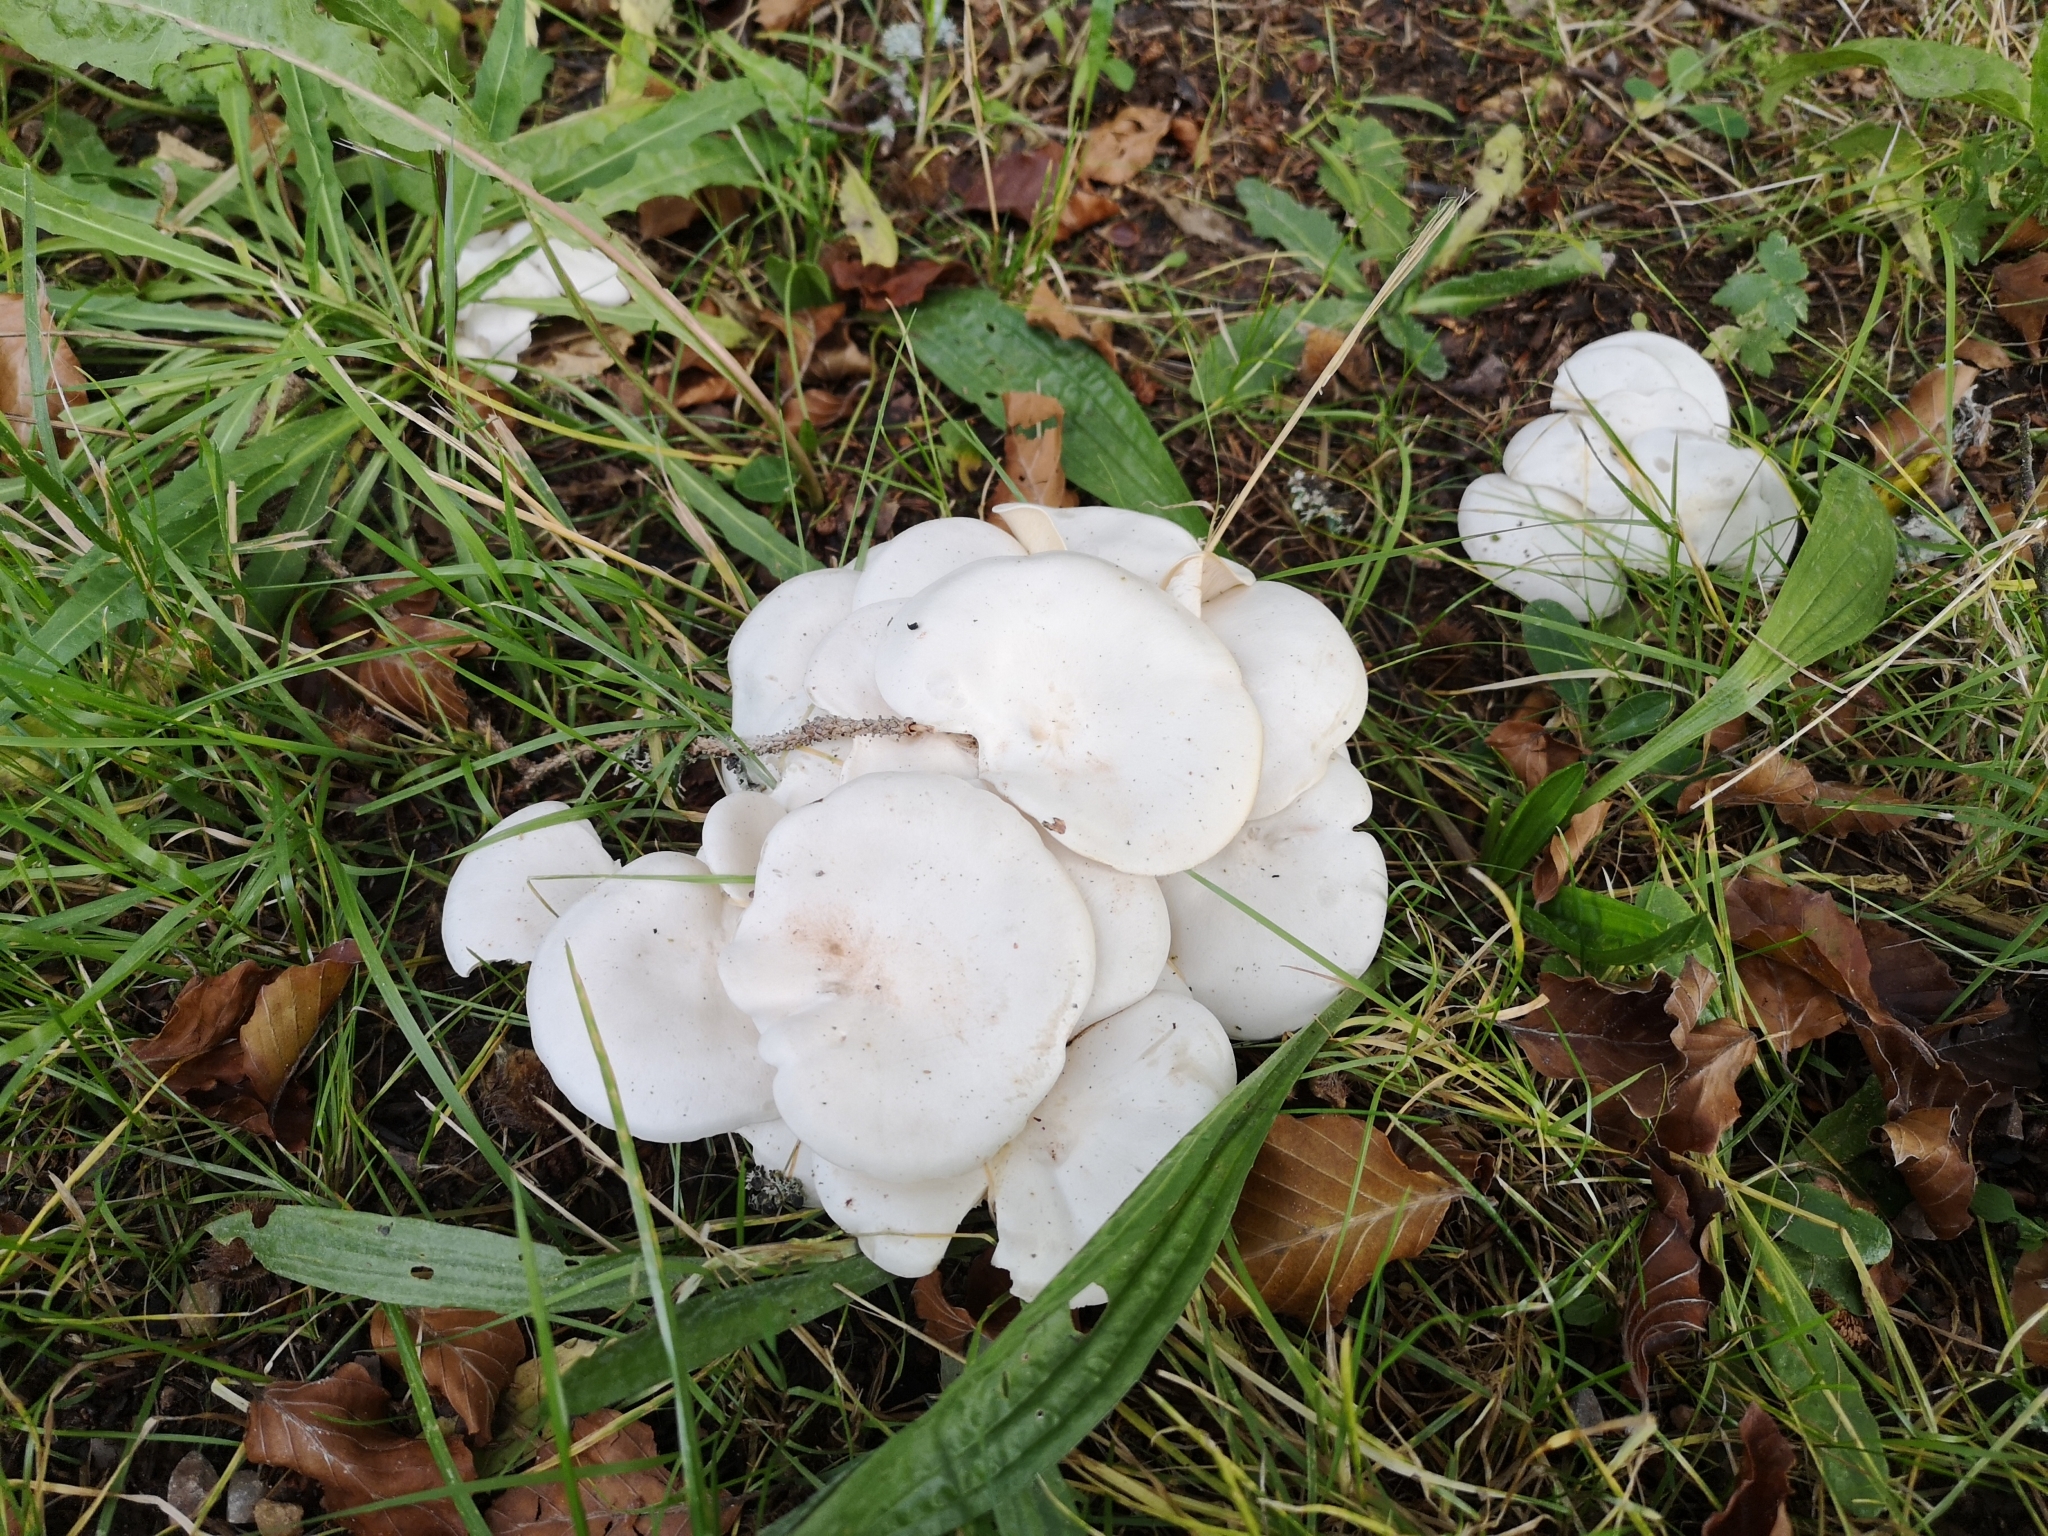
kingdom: Fungi
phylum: Basidiomycota
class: Agaricomycetes
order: Agaricales
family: Tricholomataceae
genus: Leucocybe
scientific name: Leucocybe connata
